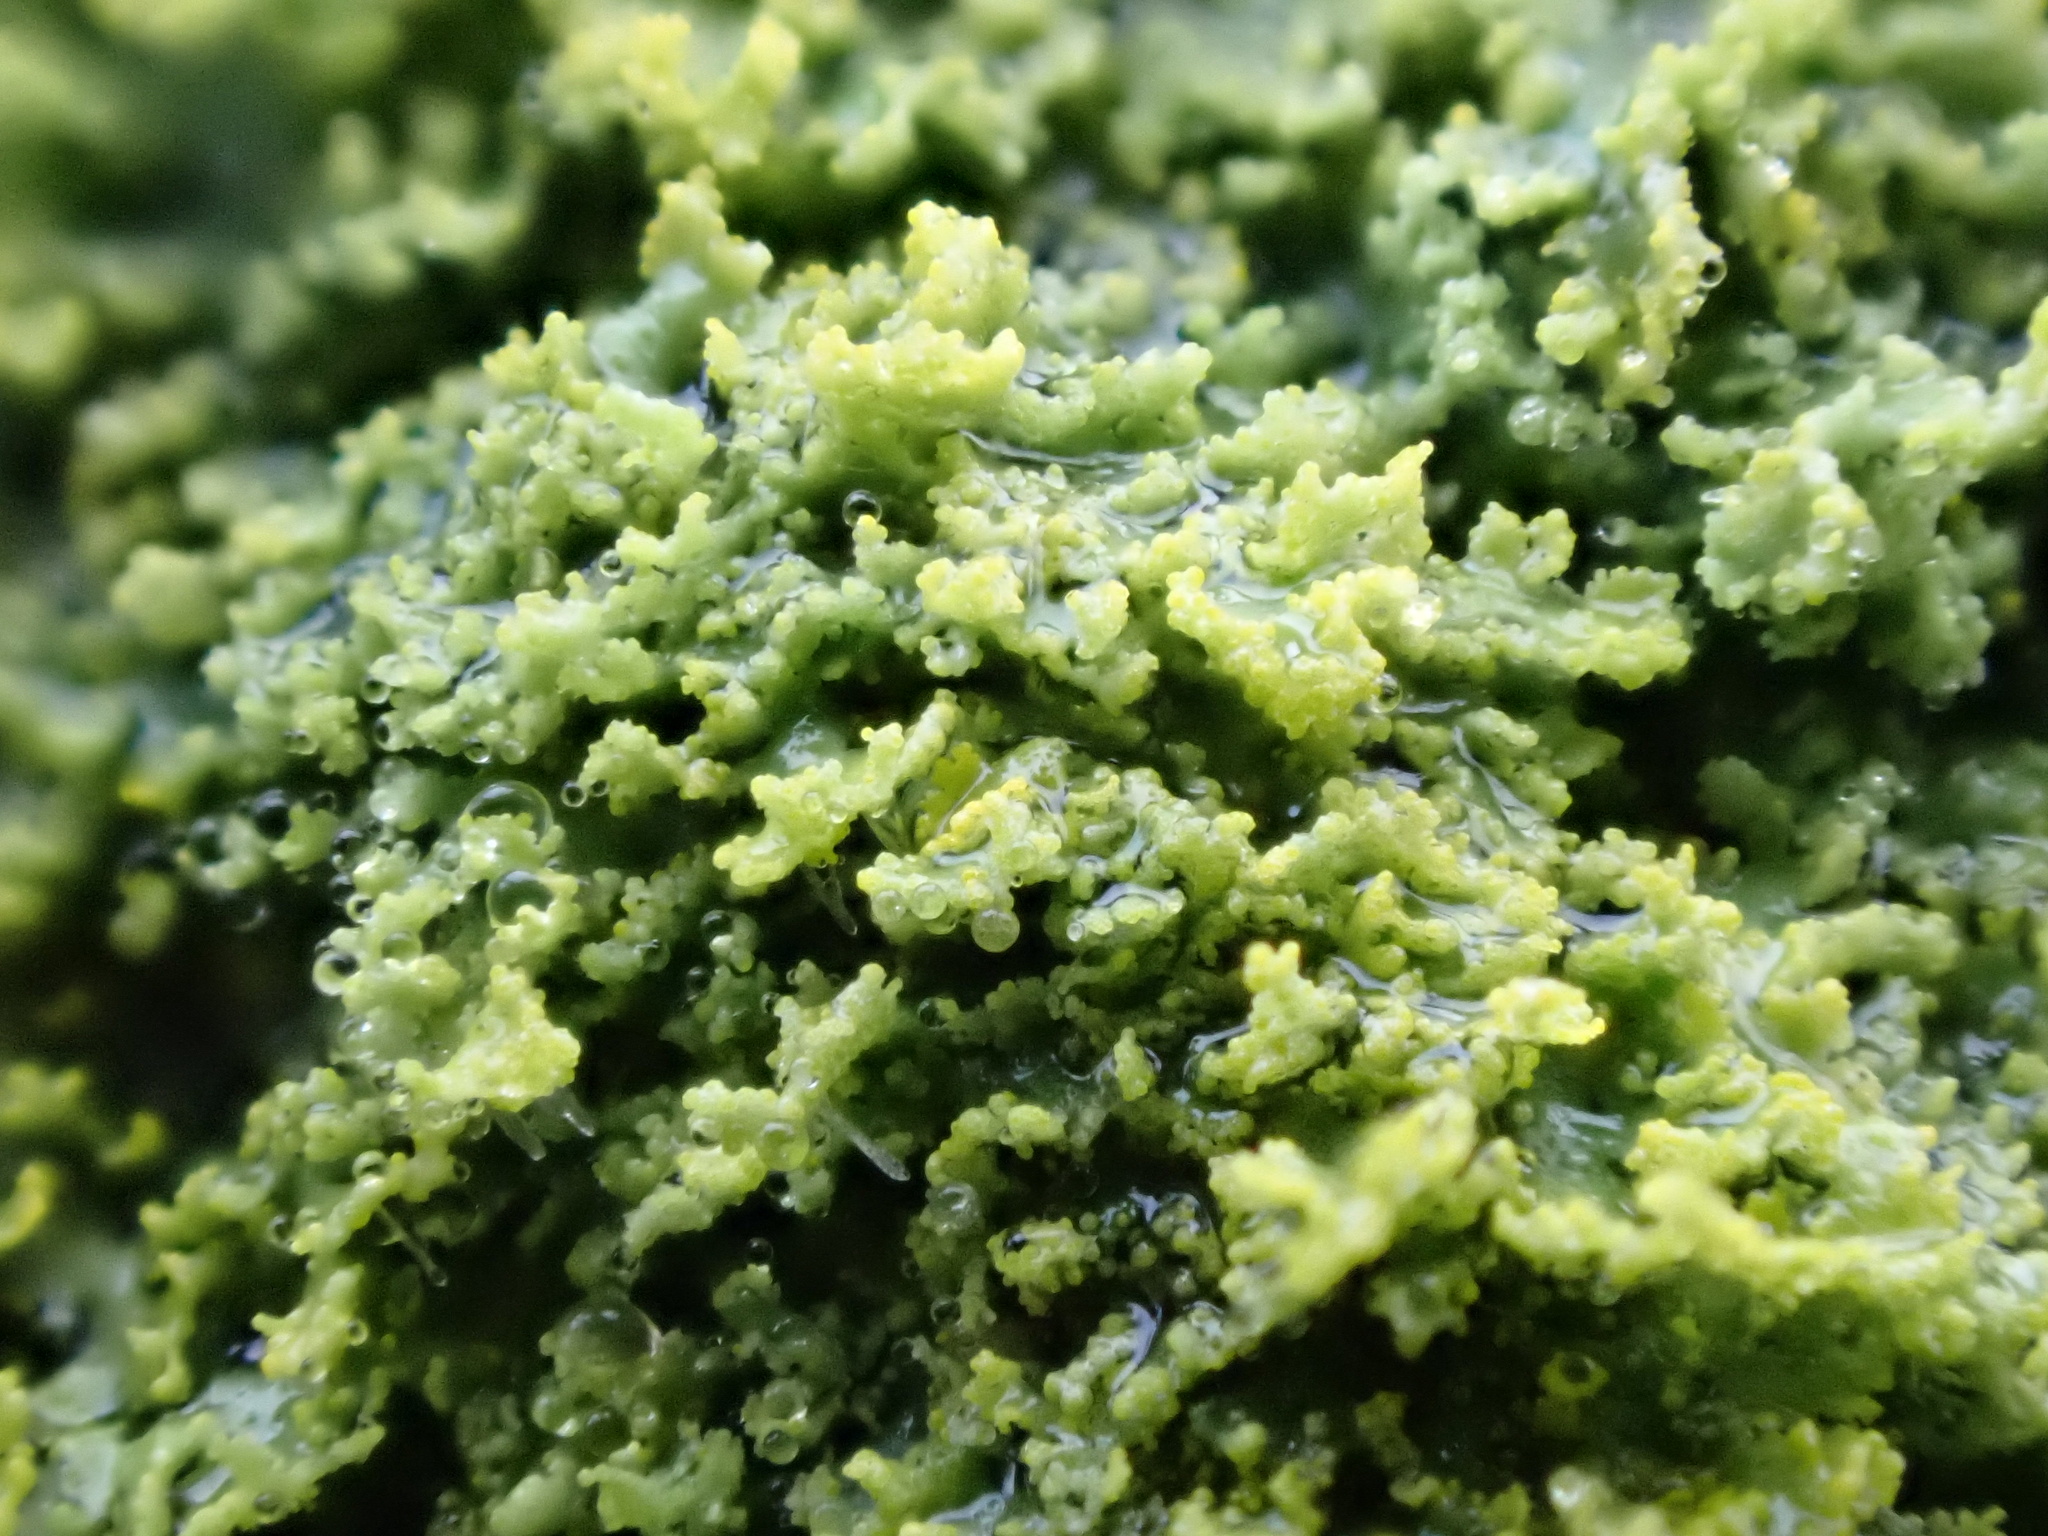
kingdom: Fungi
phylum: Ascomycota
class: Candelariomycetes
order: Candelariales
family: Candelariaceae
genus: Candelaria
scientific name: Candelaria concolor
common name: Candleflame lichen
